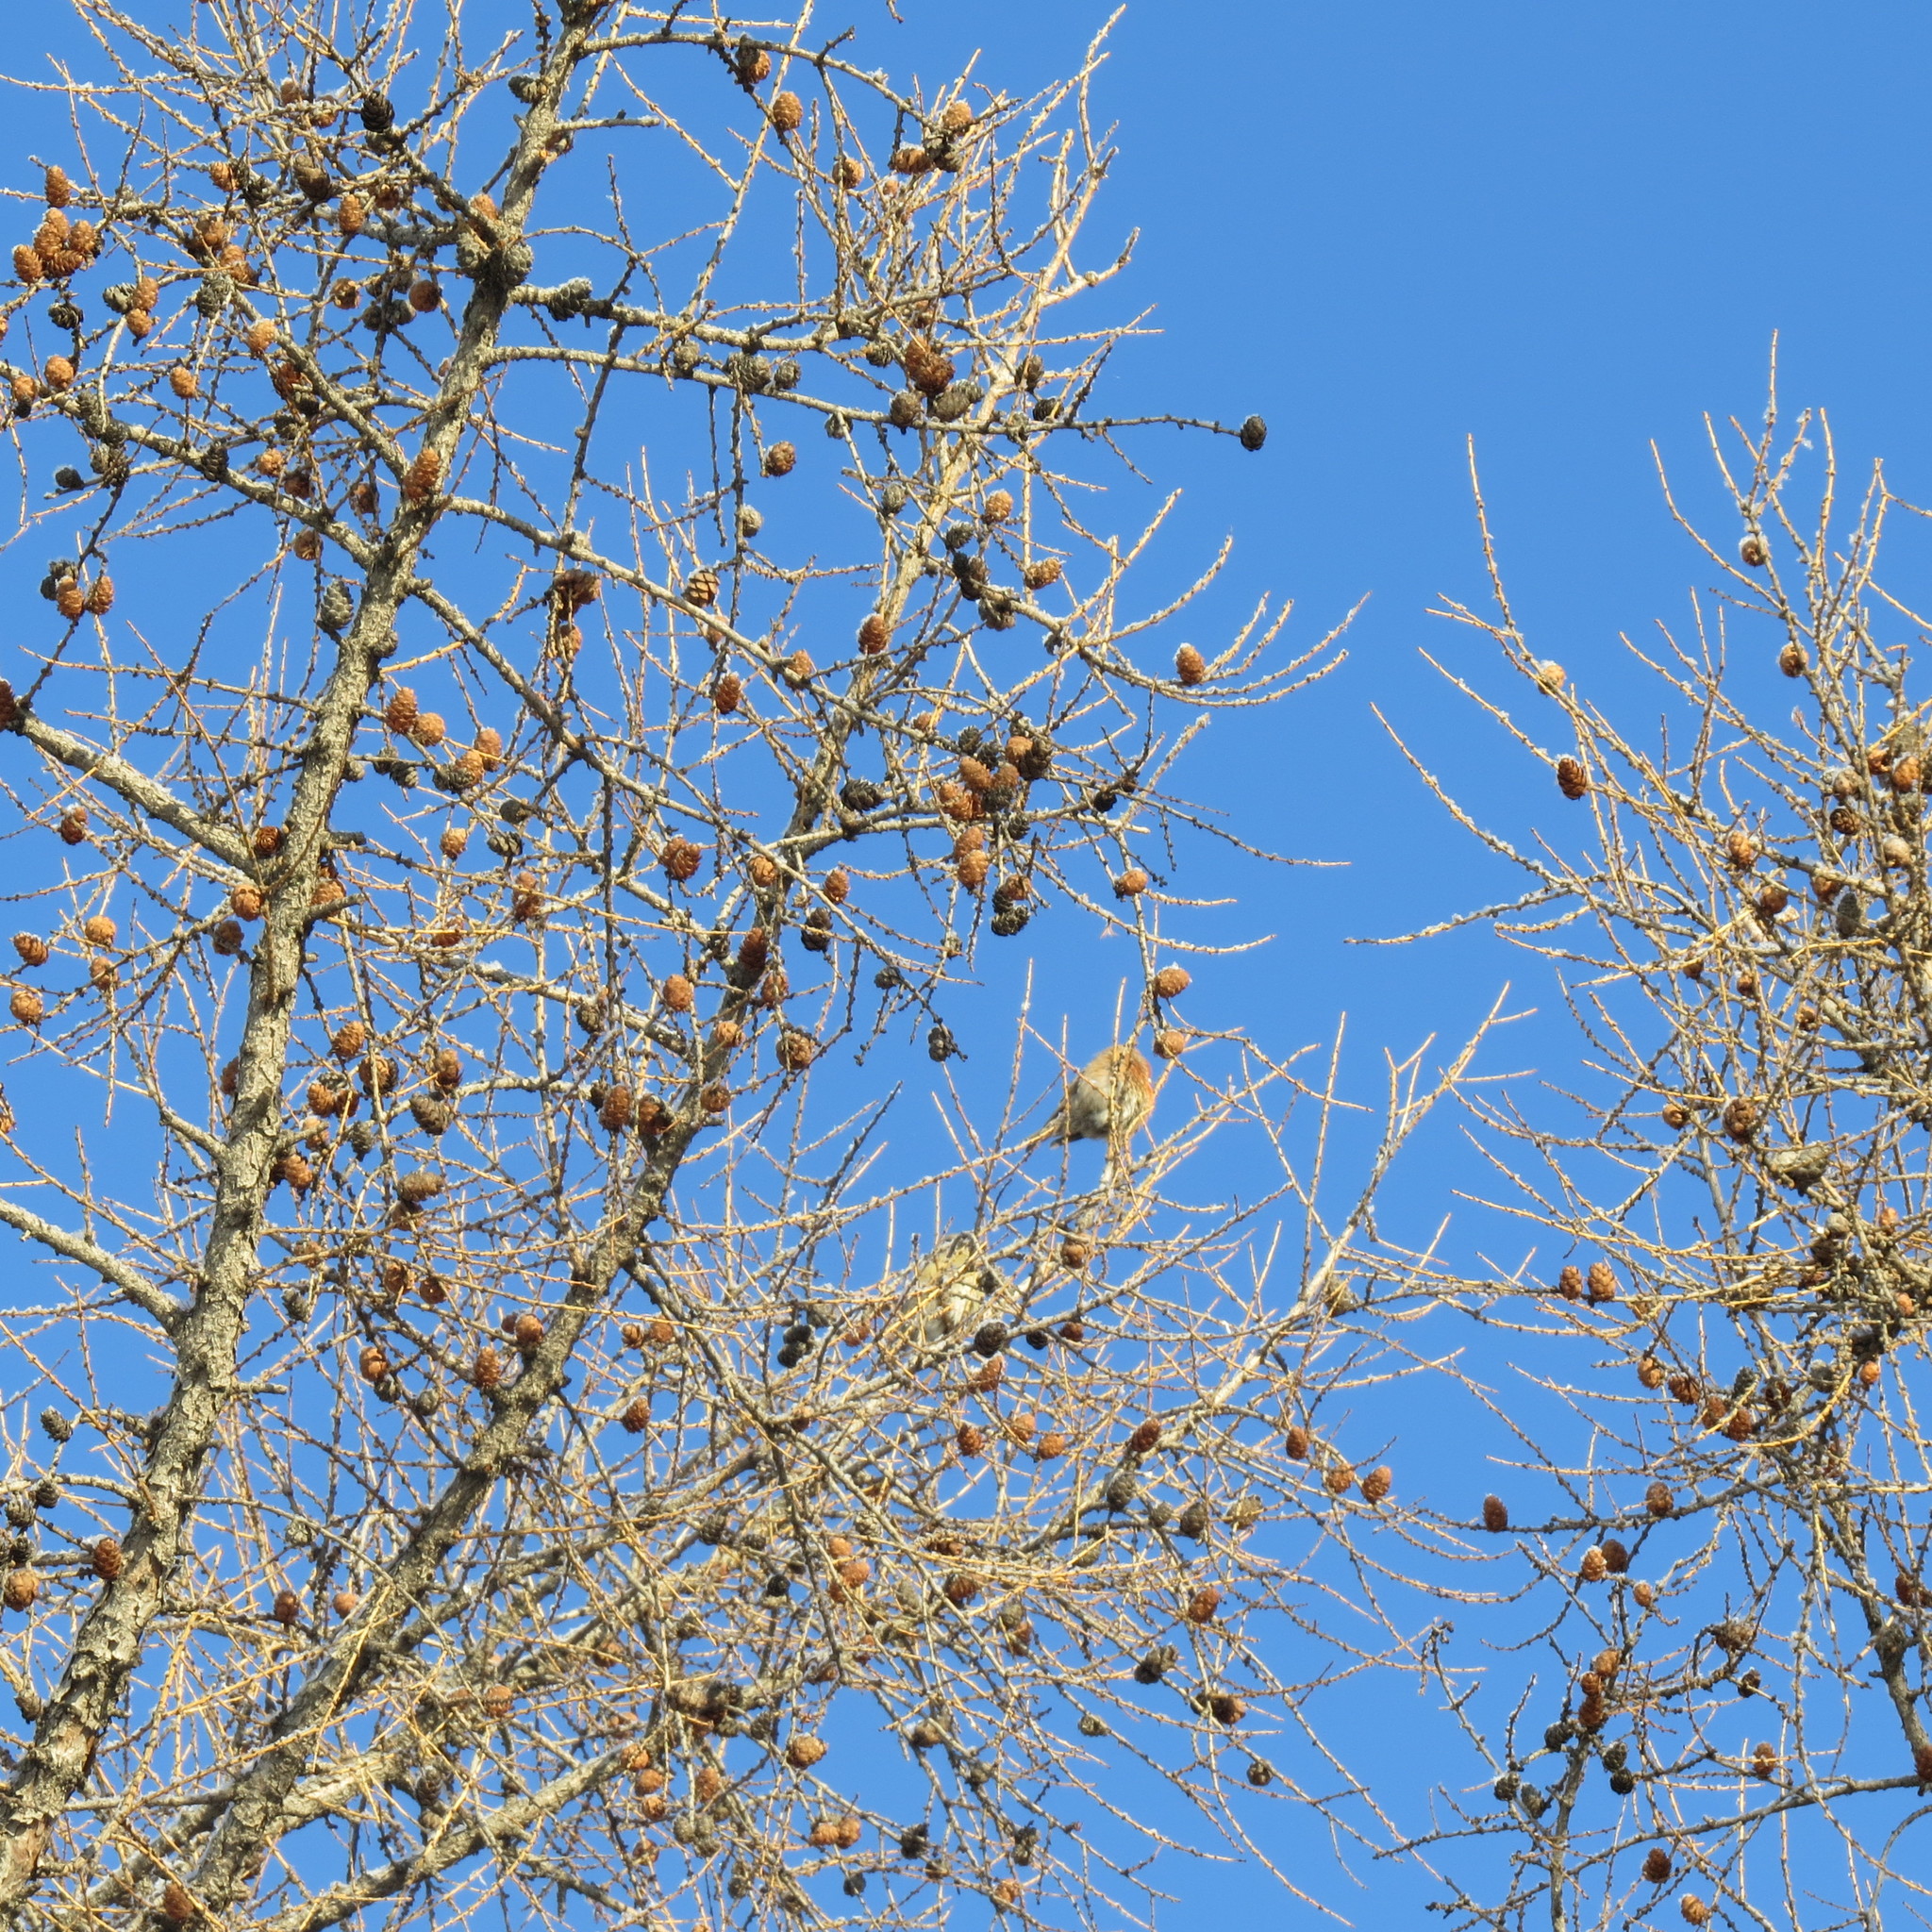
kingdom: Animalia
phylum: Chordata
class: Aves
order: Passeriformes
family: Fringillidae
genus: Loxia
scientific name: Loxia curvirostra
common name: Red crossbill
